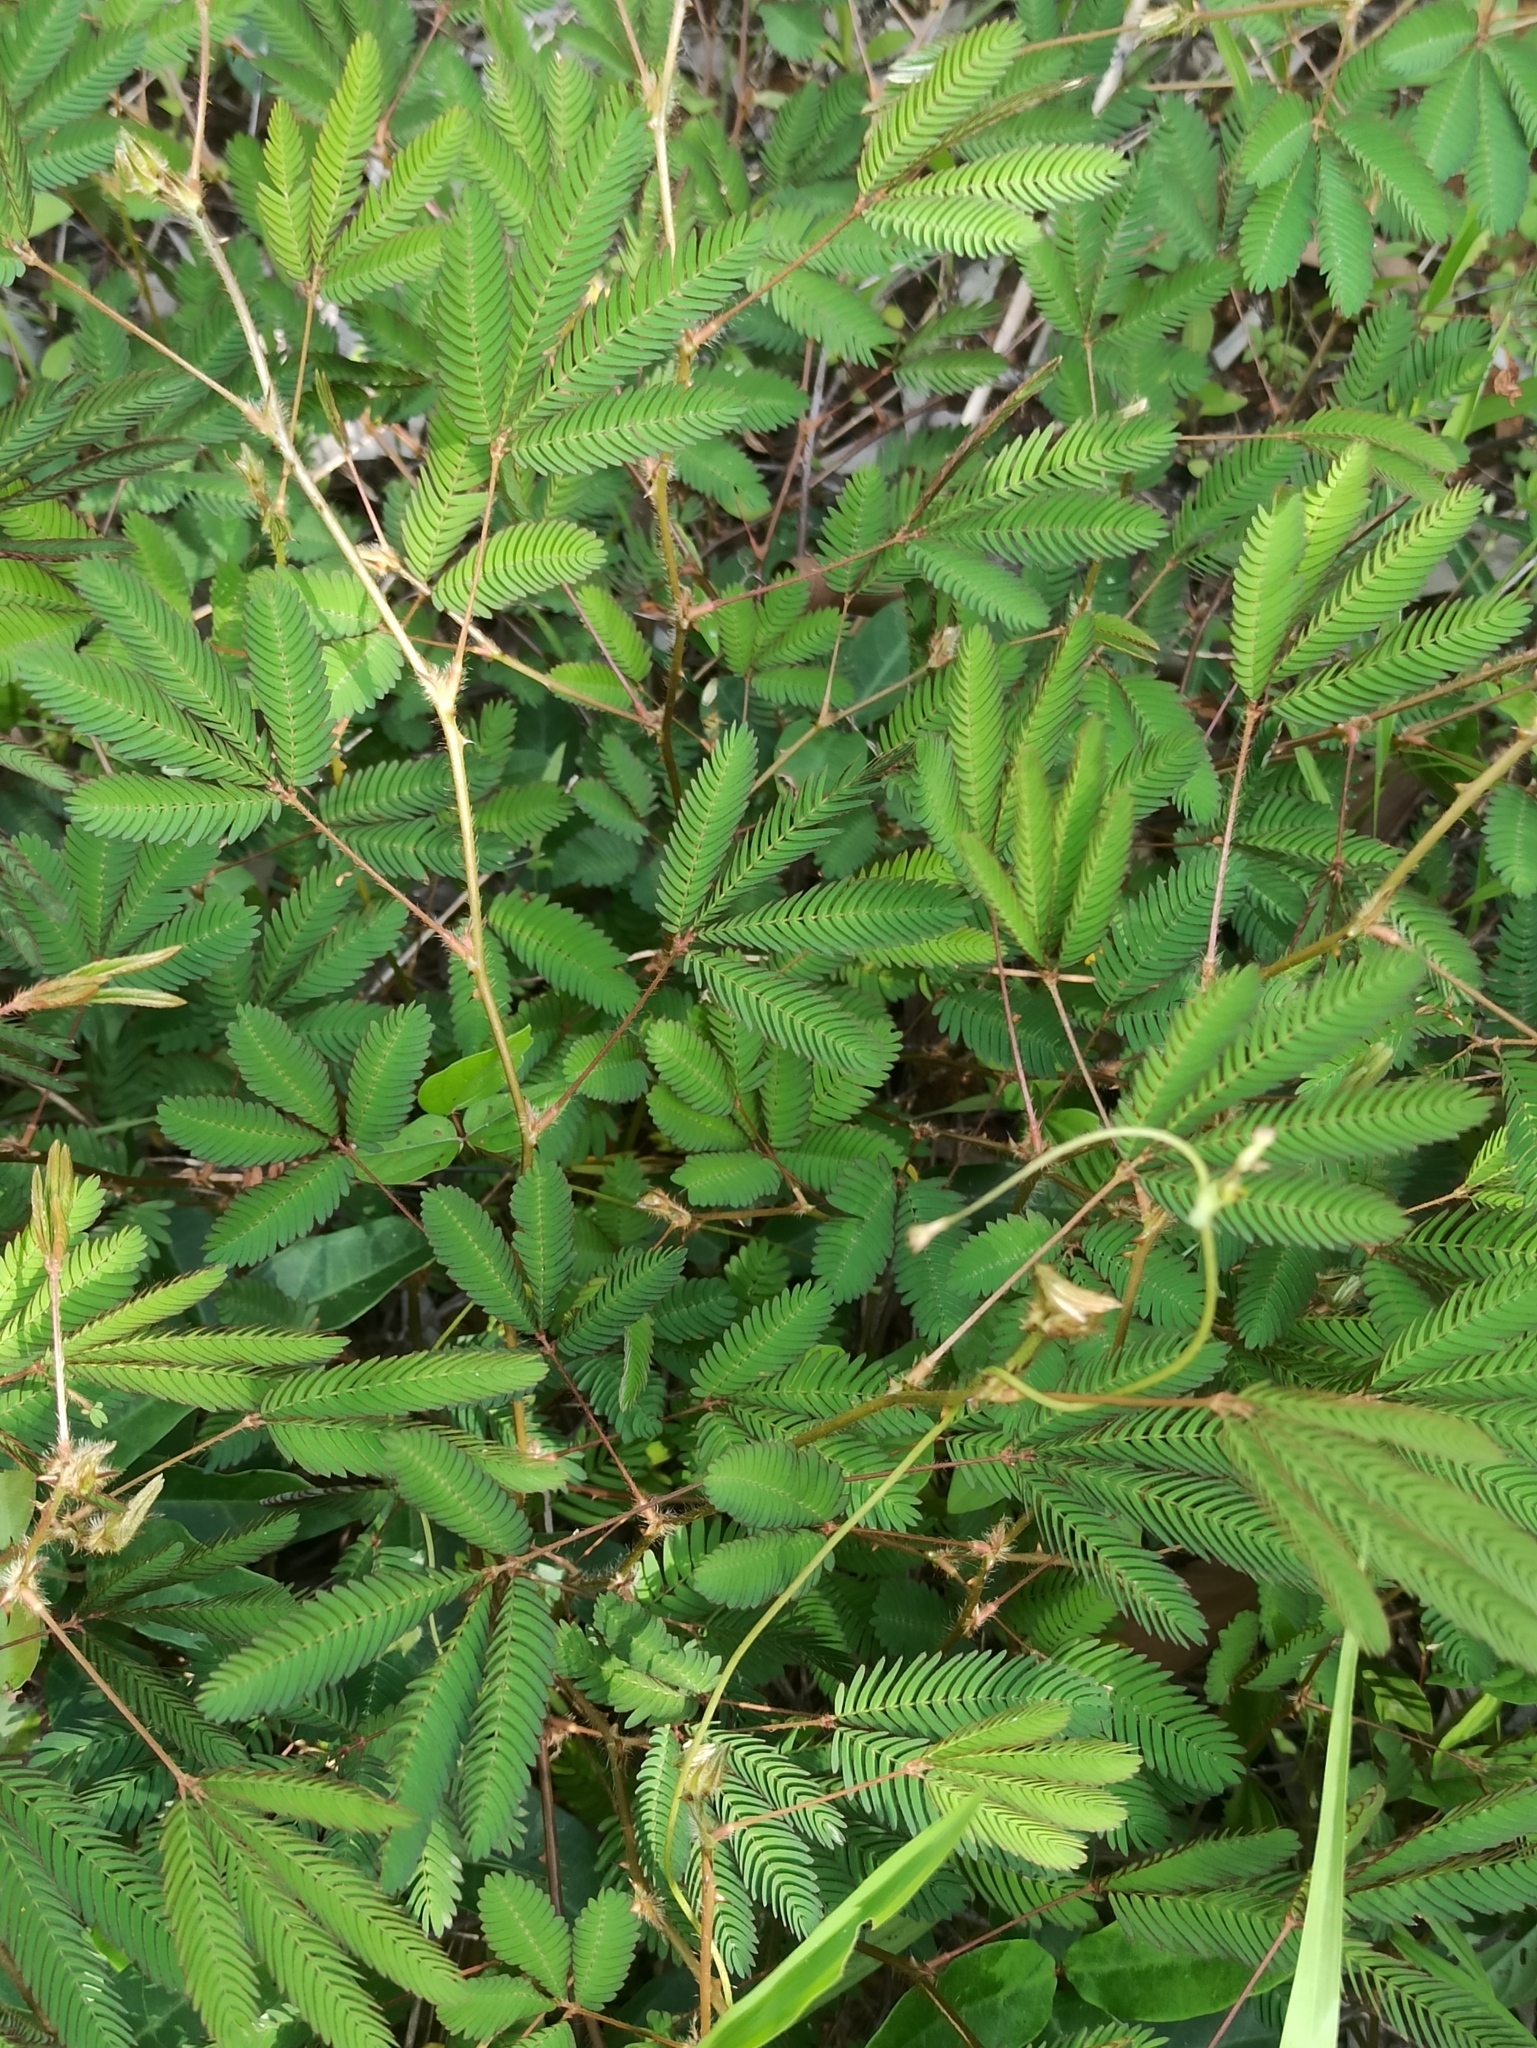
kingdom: Plantae
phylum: Tracheophyta
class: Magnoliopsida
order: Fabales
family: Fabaceae
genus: Mimosa
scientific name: Mimosa pudica
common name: Sensitive plant
